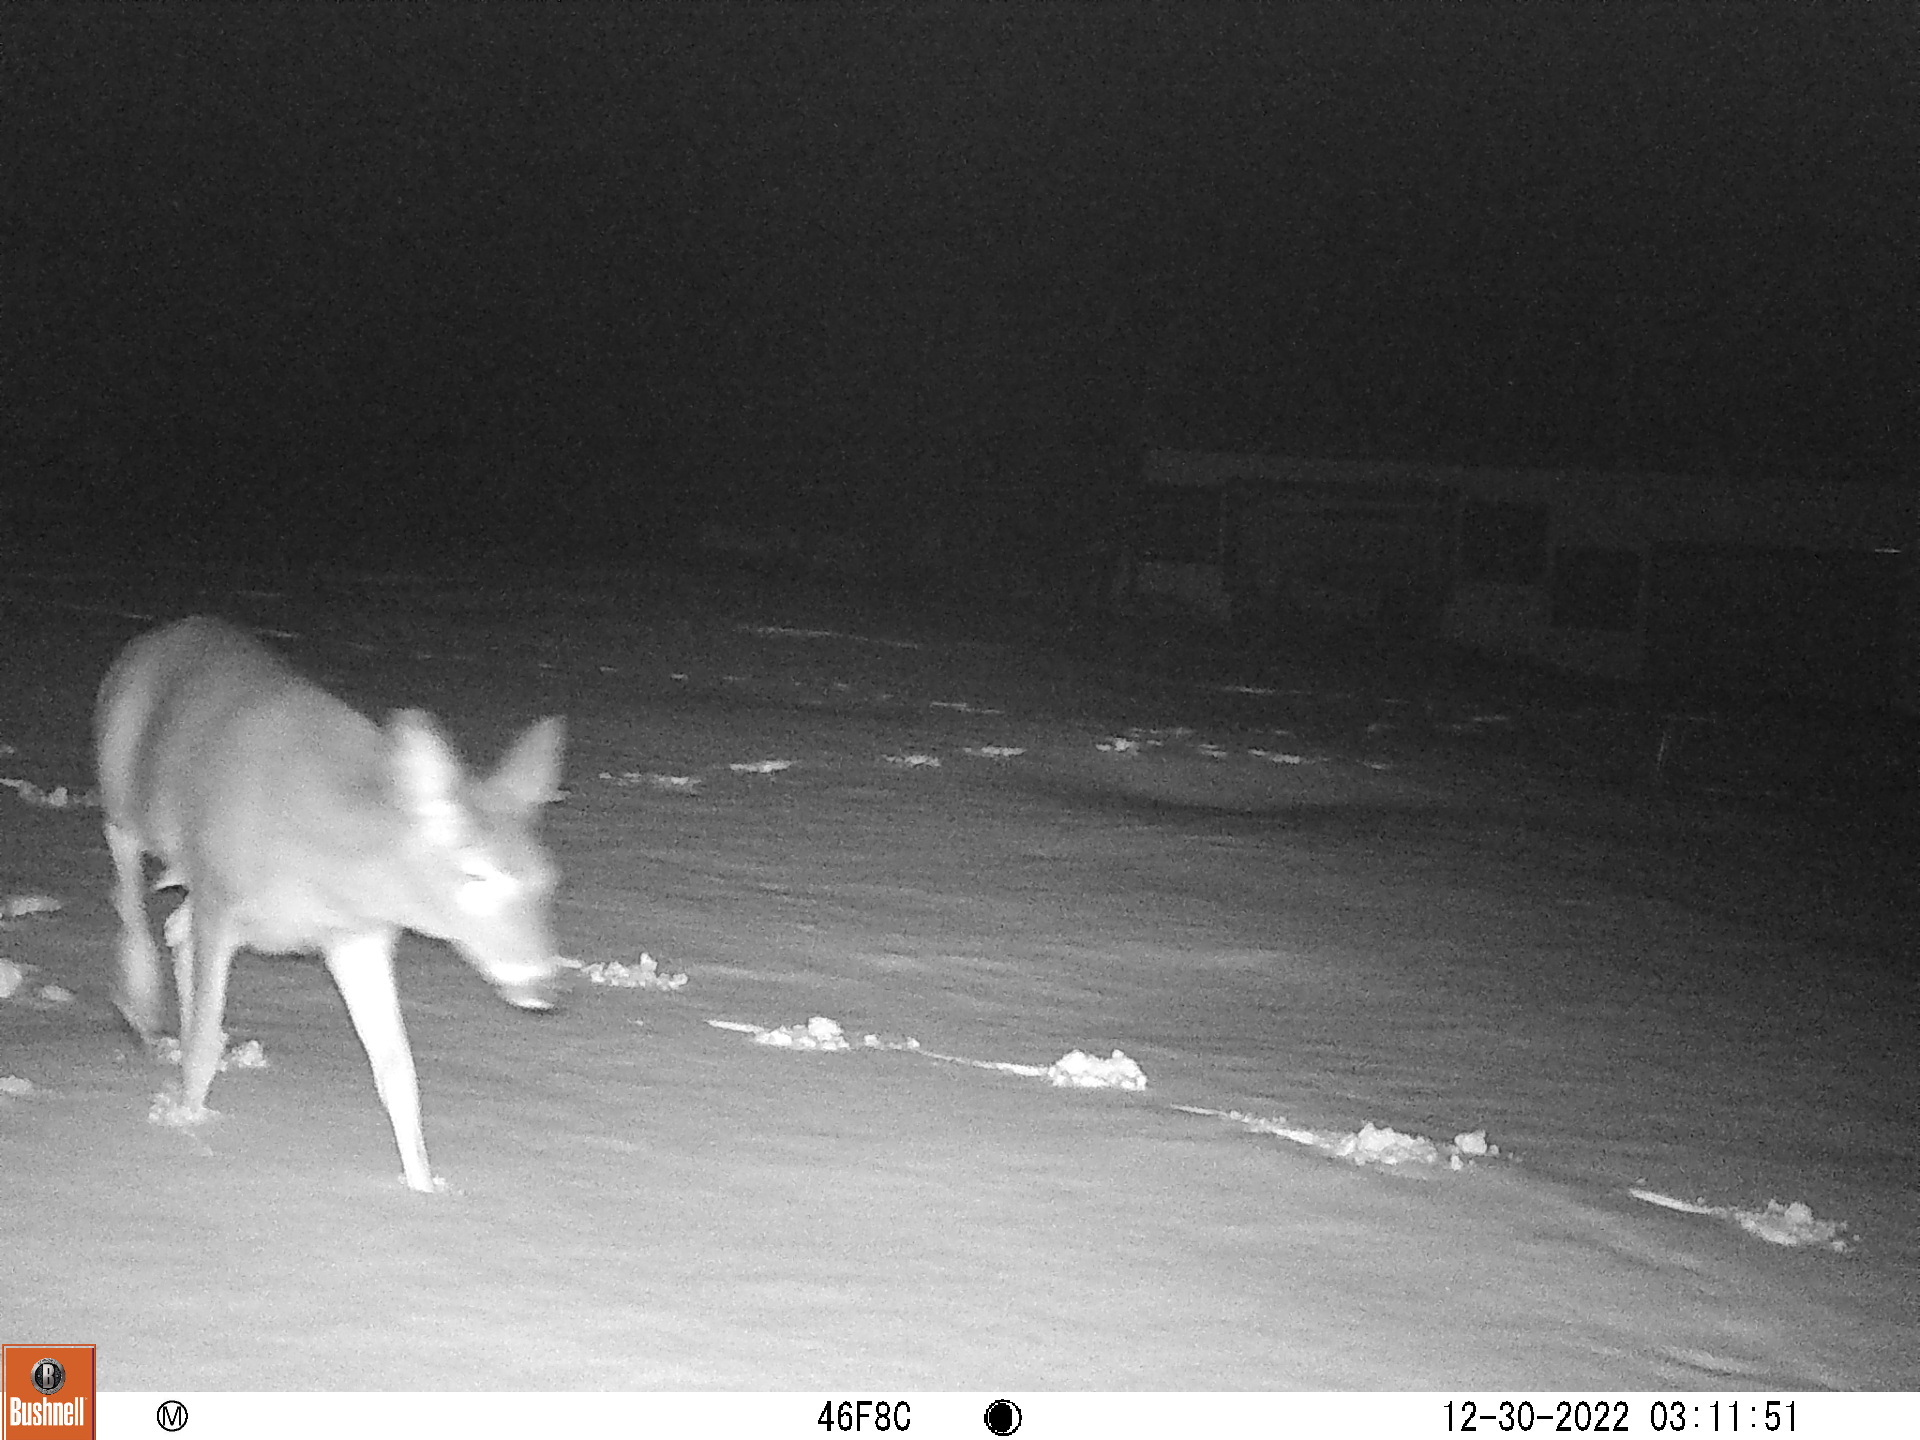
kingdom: Animalia
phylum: Chordata
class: Mammalia
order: Artiodactyla
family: Cervidae
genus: Odocoileus
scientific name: Odocoileus virginianus
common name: White-tailed deer
